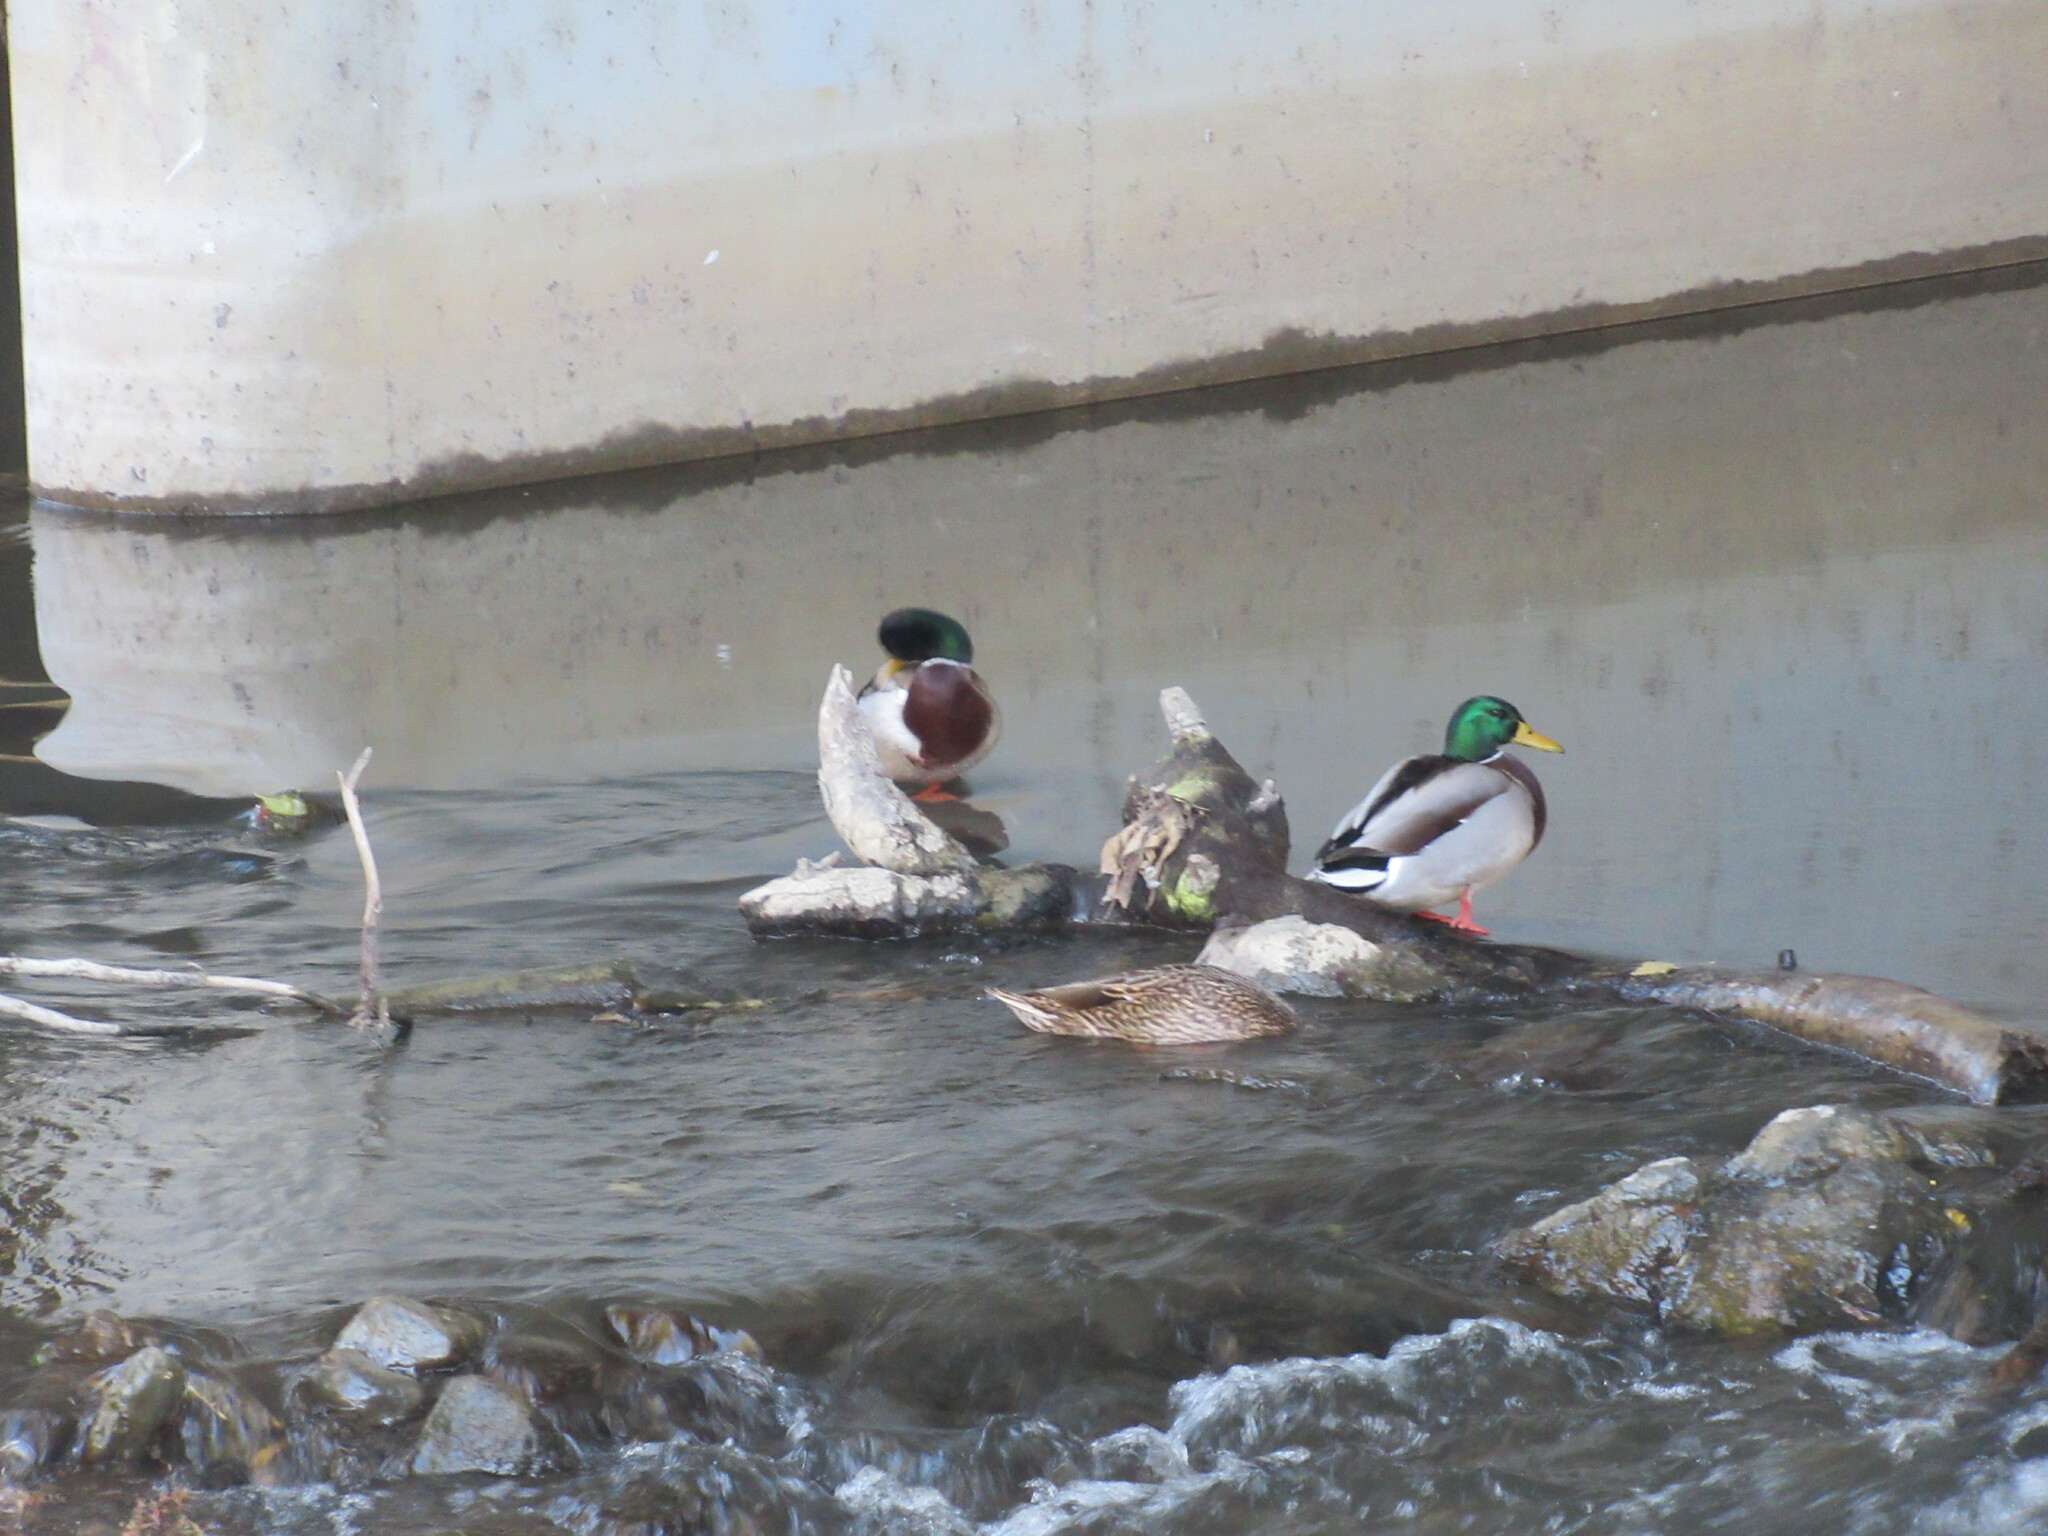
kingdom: Animalia
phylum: Chordata
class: Aves
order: Anseriformes
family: Anatidae
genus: Anas
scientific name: Anas platyrhynchos
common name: Mallard
